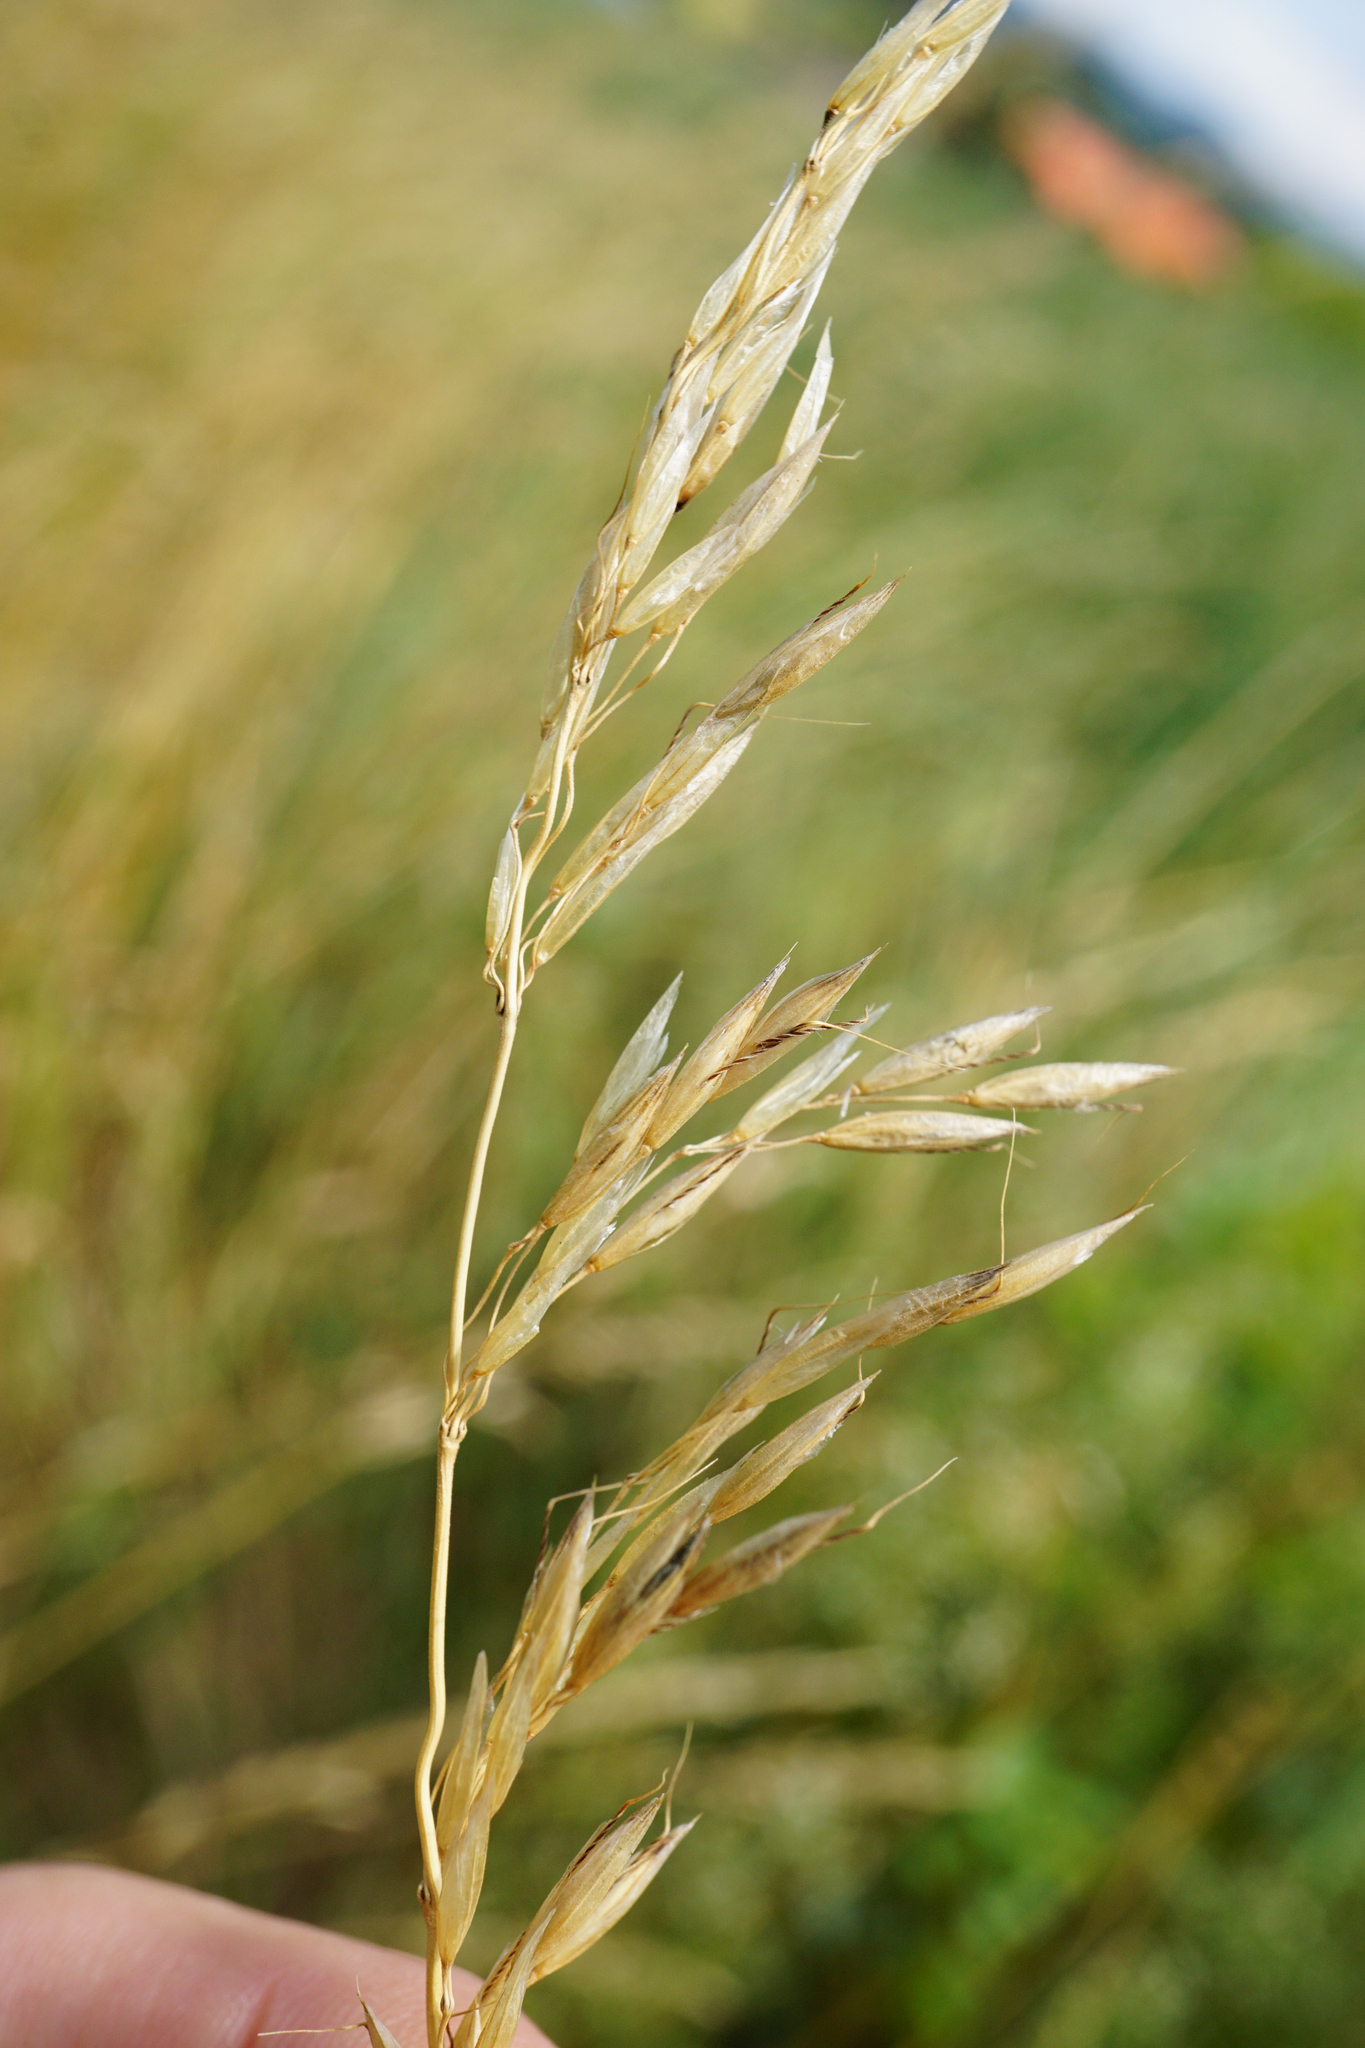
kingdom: Plantae
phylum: Tracheophyta
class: Liliopsida
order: Poales
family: Poaceae
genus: Arrhenatherum
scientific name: Arrhenatherum elatius
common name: Tall oatgrass
